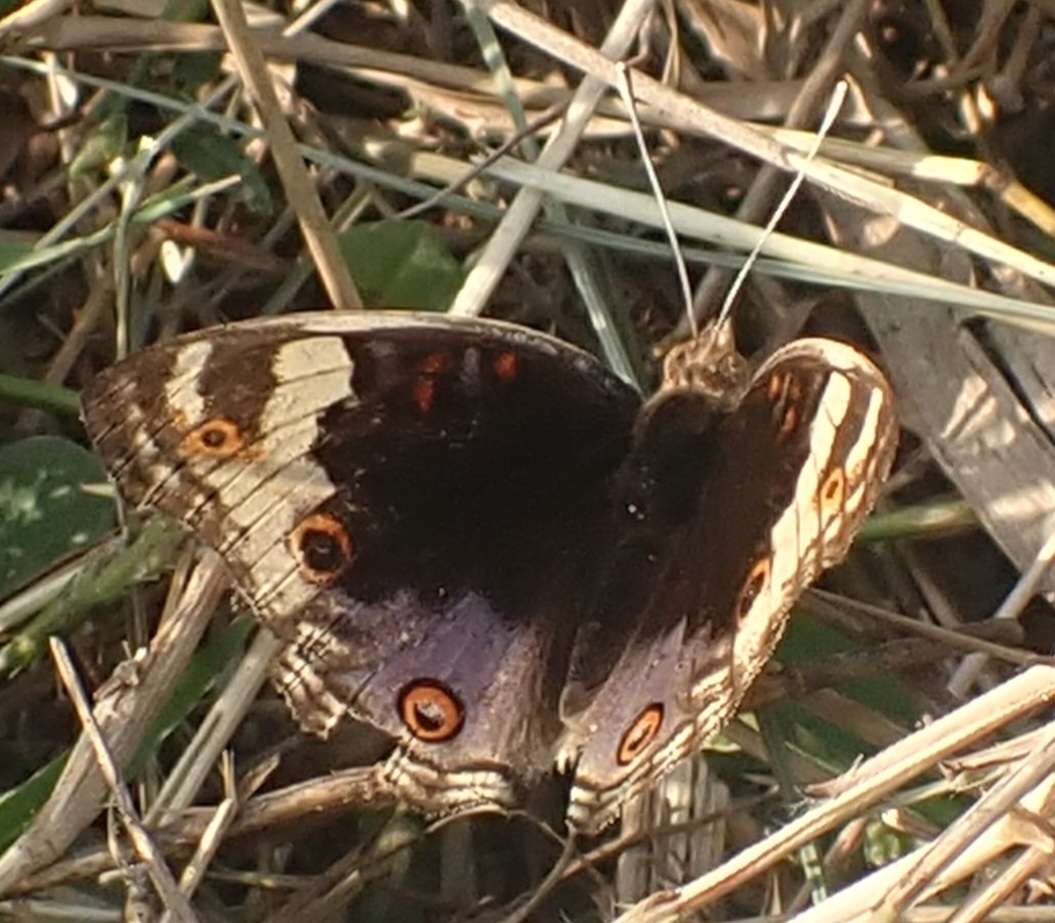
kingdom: Animalia
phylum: Arthropoda
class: Insecta
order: Lepidoptera
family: Nymphalidae
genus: Junonia
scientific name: Junonia orithya
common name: Blue pansy
